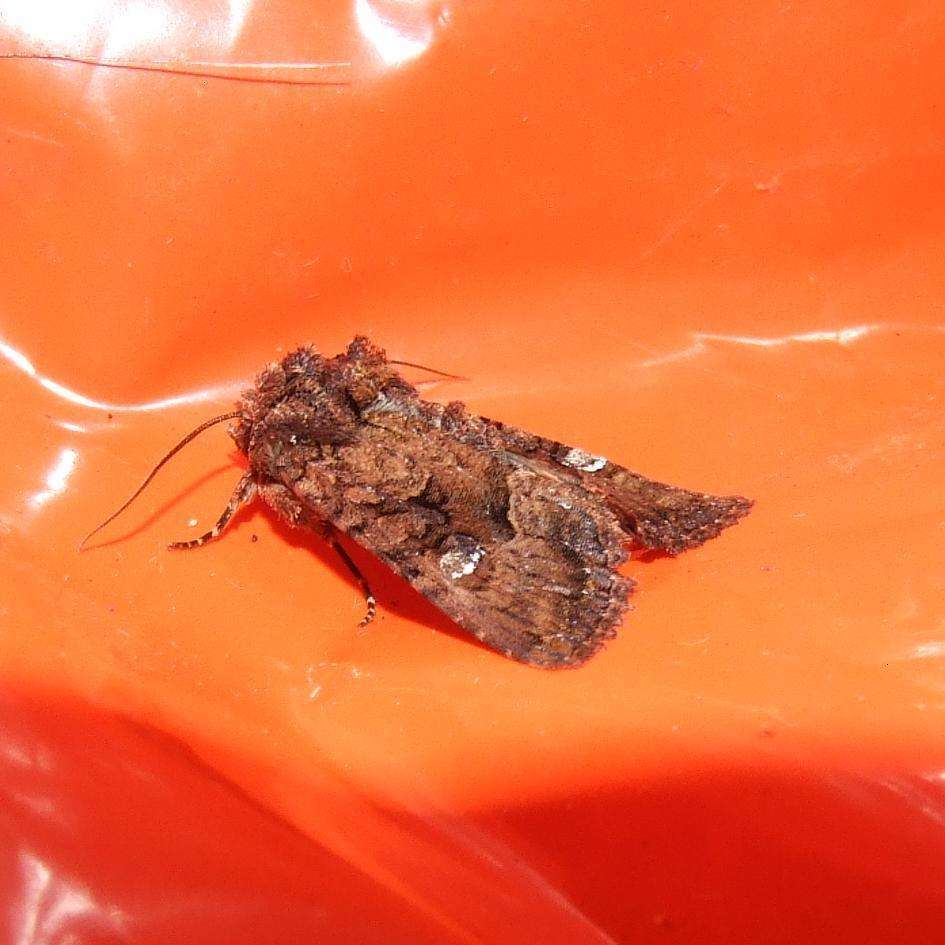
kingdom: Animalia
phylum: Arthropoda
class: Insecta
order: Lepidoptera
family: Noctuidae
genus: Neumichtis
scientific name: Neumichtis saliaris
